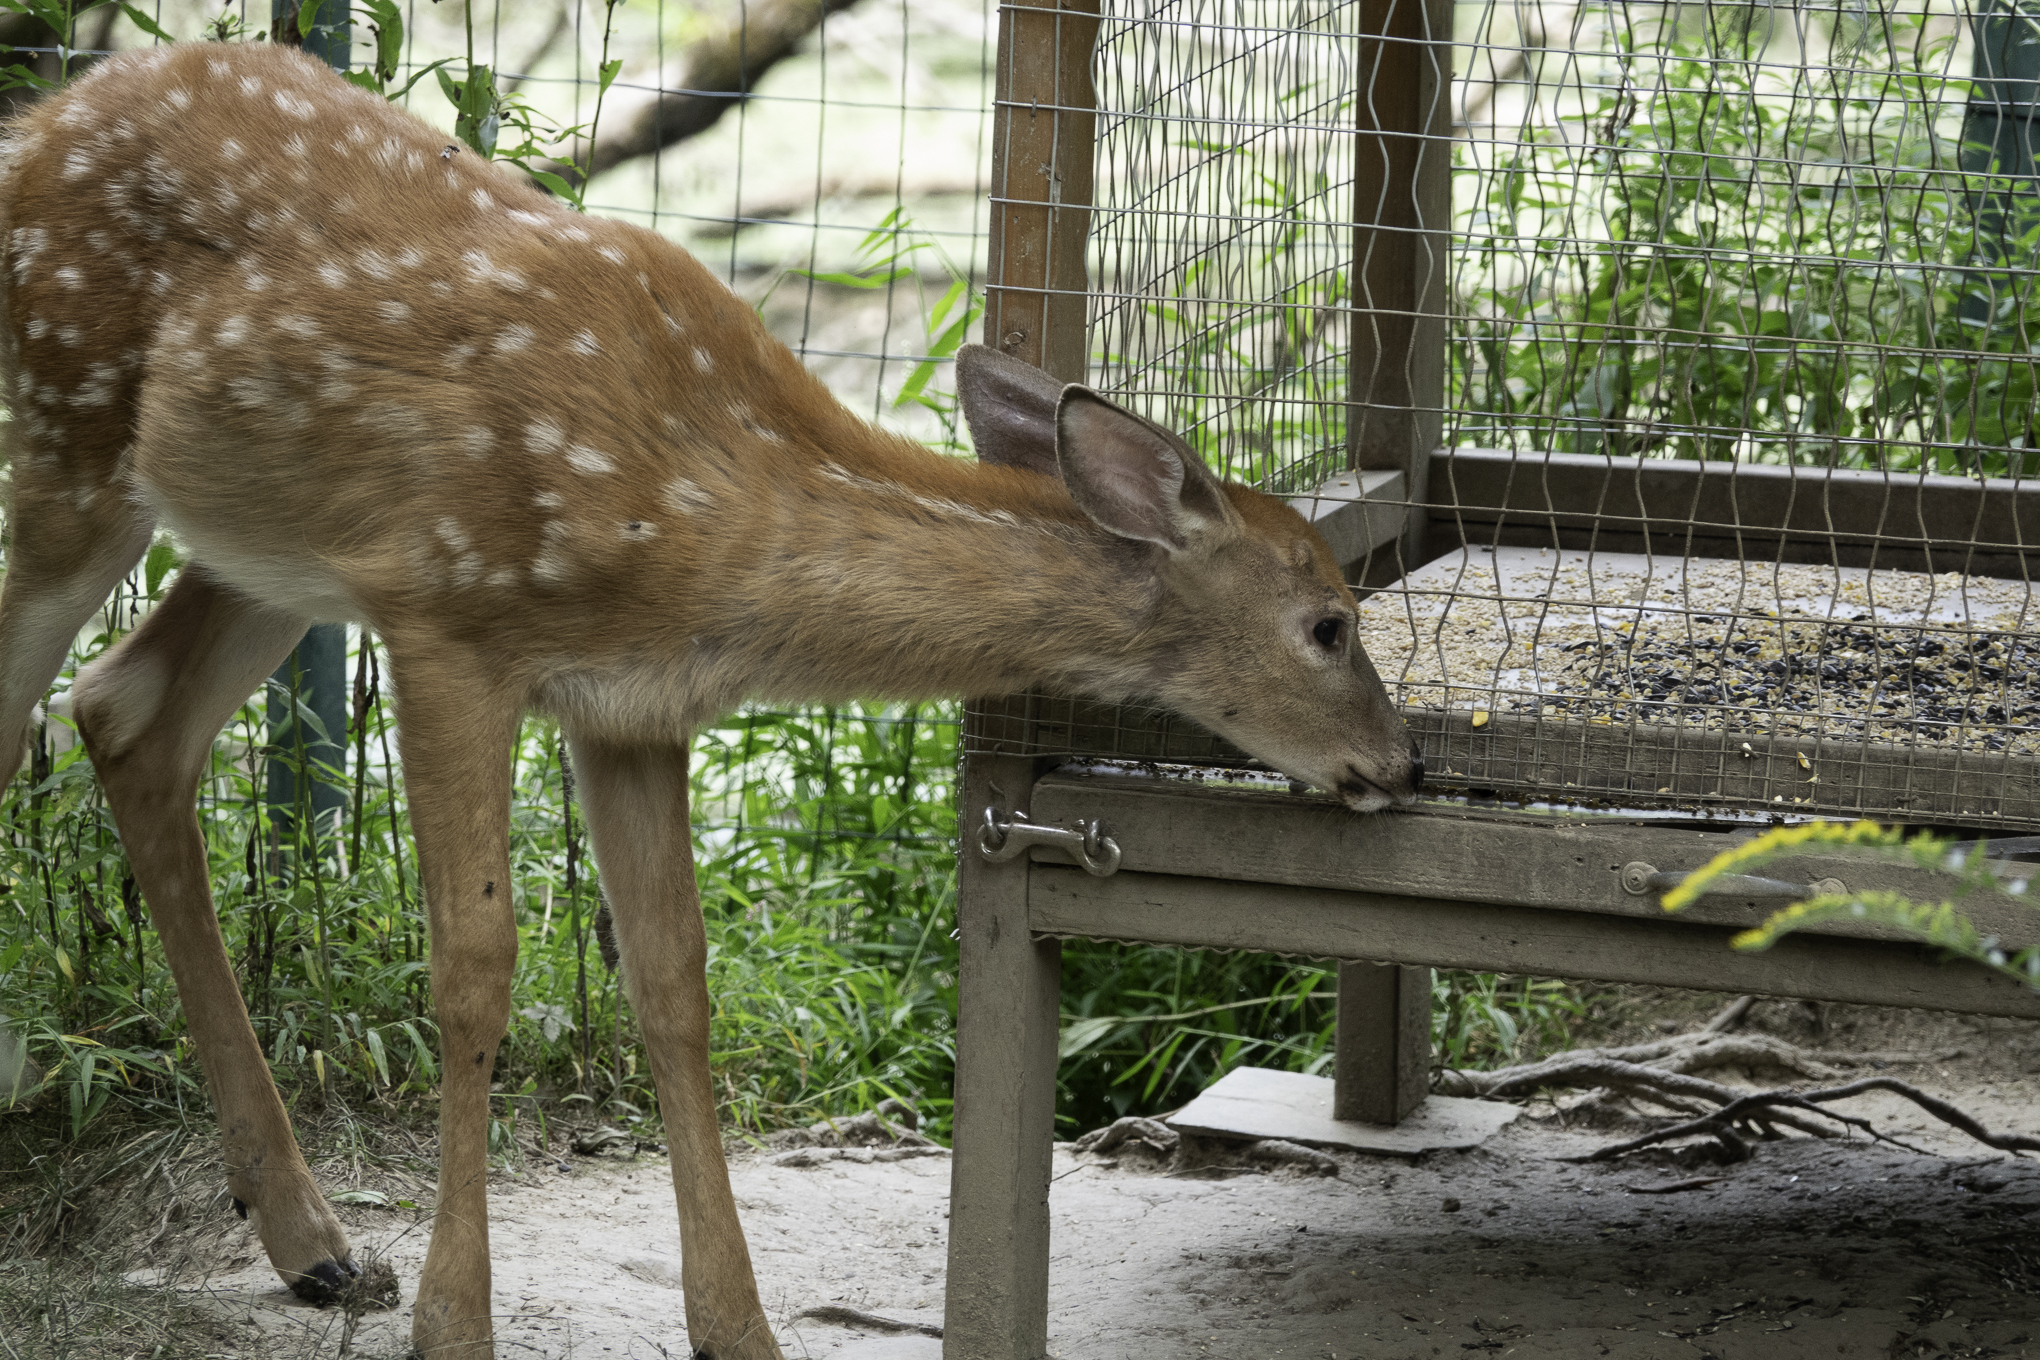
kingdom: Animalia
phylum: Chordata
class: Mammalia
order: Artiodactyla
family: Cervidae
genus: Odocoileus
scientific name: Odocoileus virginianus
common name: White-tailed deer
